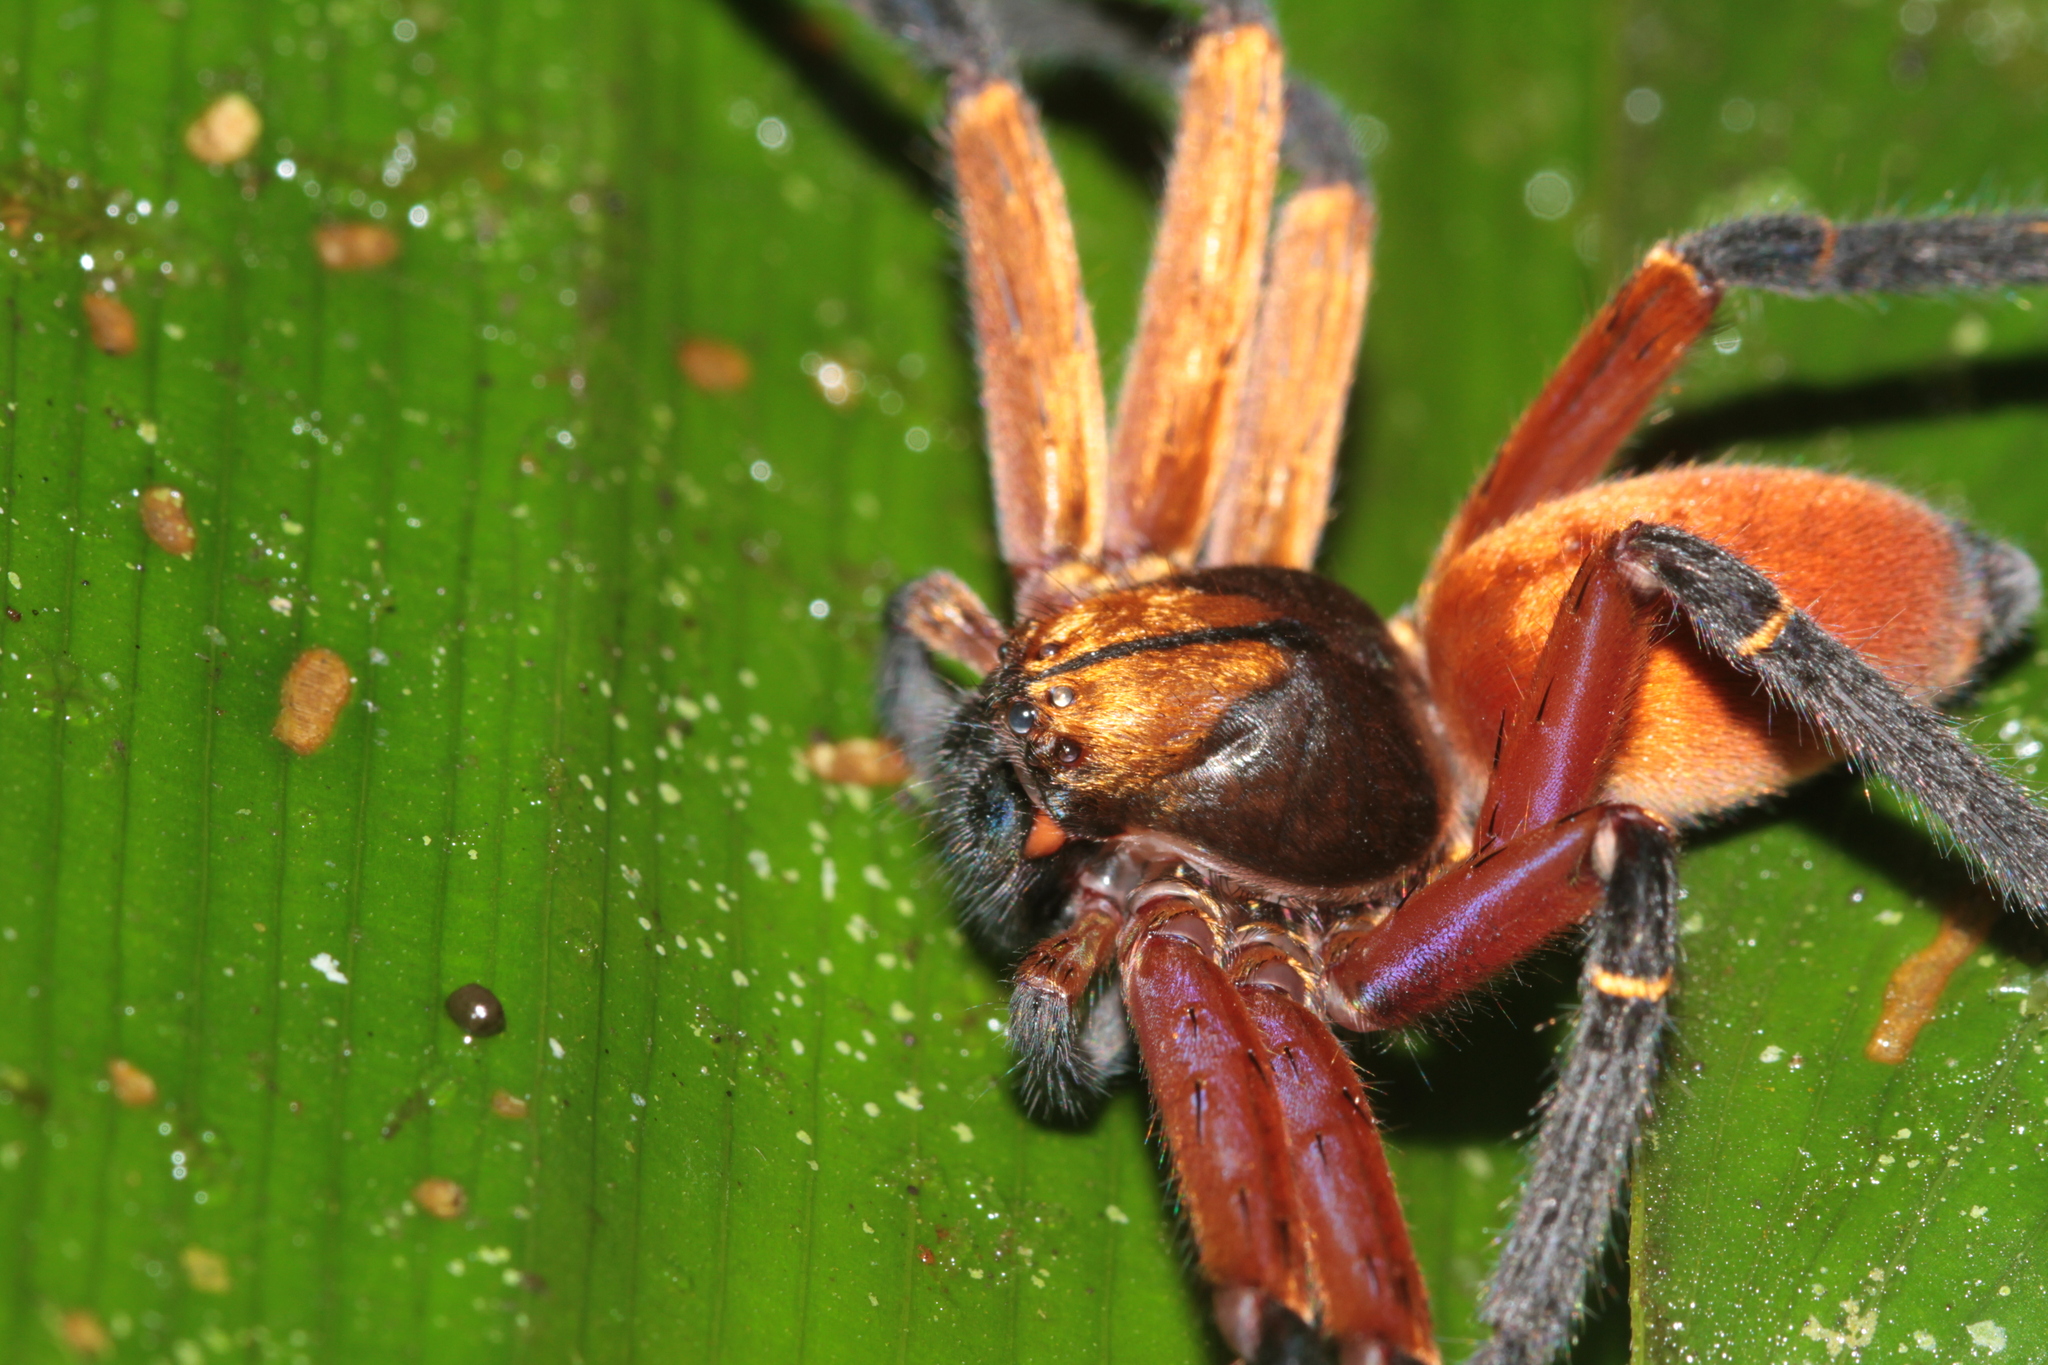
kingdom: Animalia
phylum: Arthropoda
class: Arachnida
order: Araneae
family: Sparassidae
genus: Sadala
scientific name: Sadala velox
